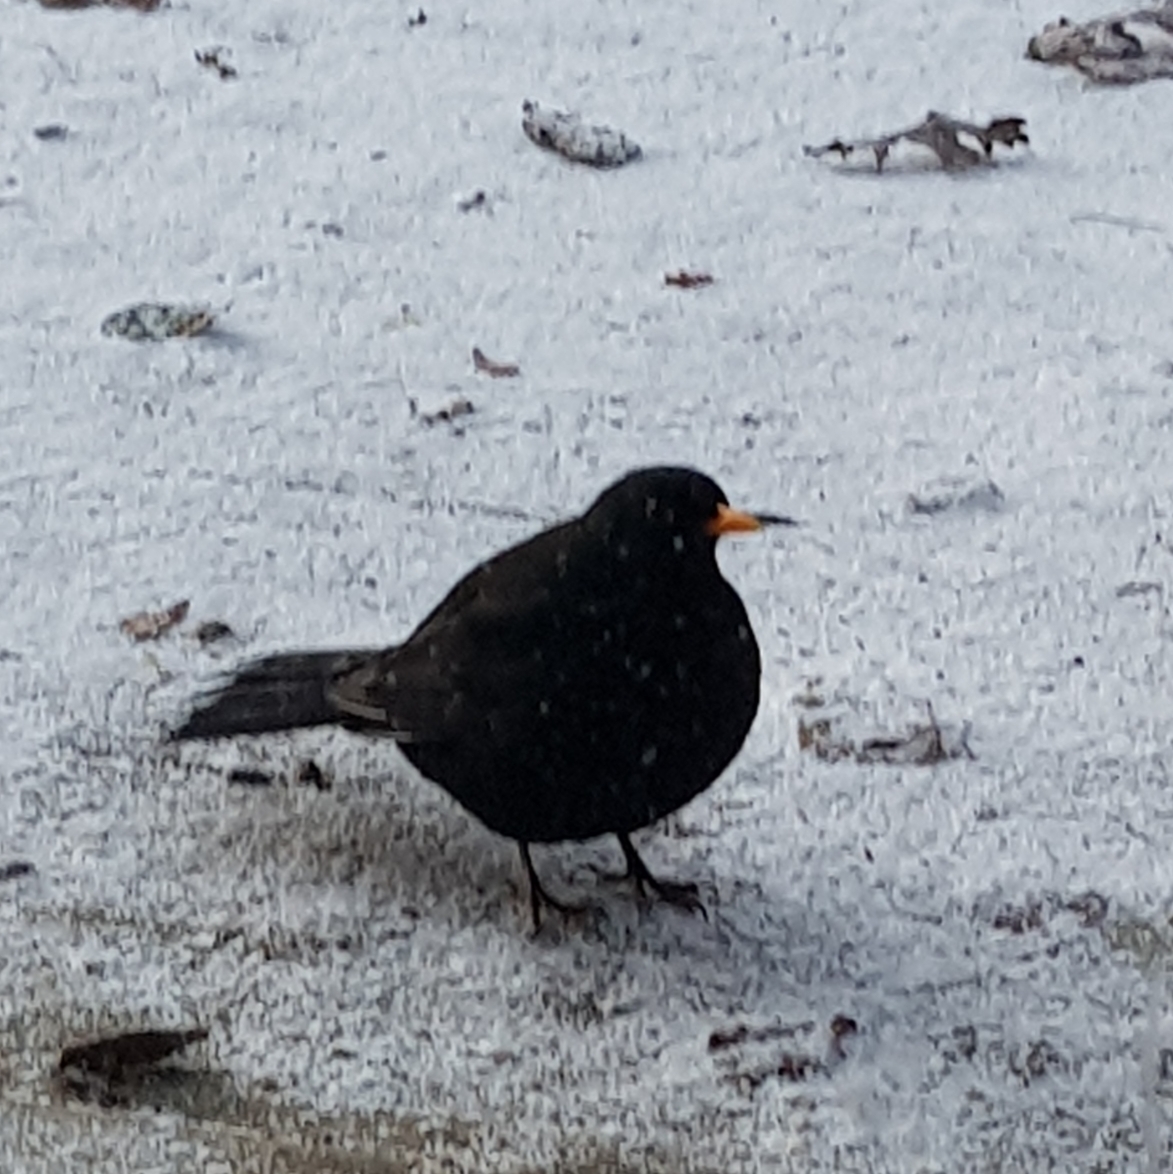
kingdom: Animalia
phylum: Chordata
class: Aves
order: Passeriformes
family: Turdidae
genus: Turdus
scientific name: Turdus merula
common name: Common blackbird
